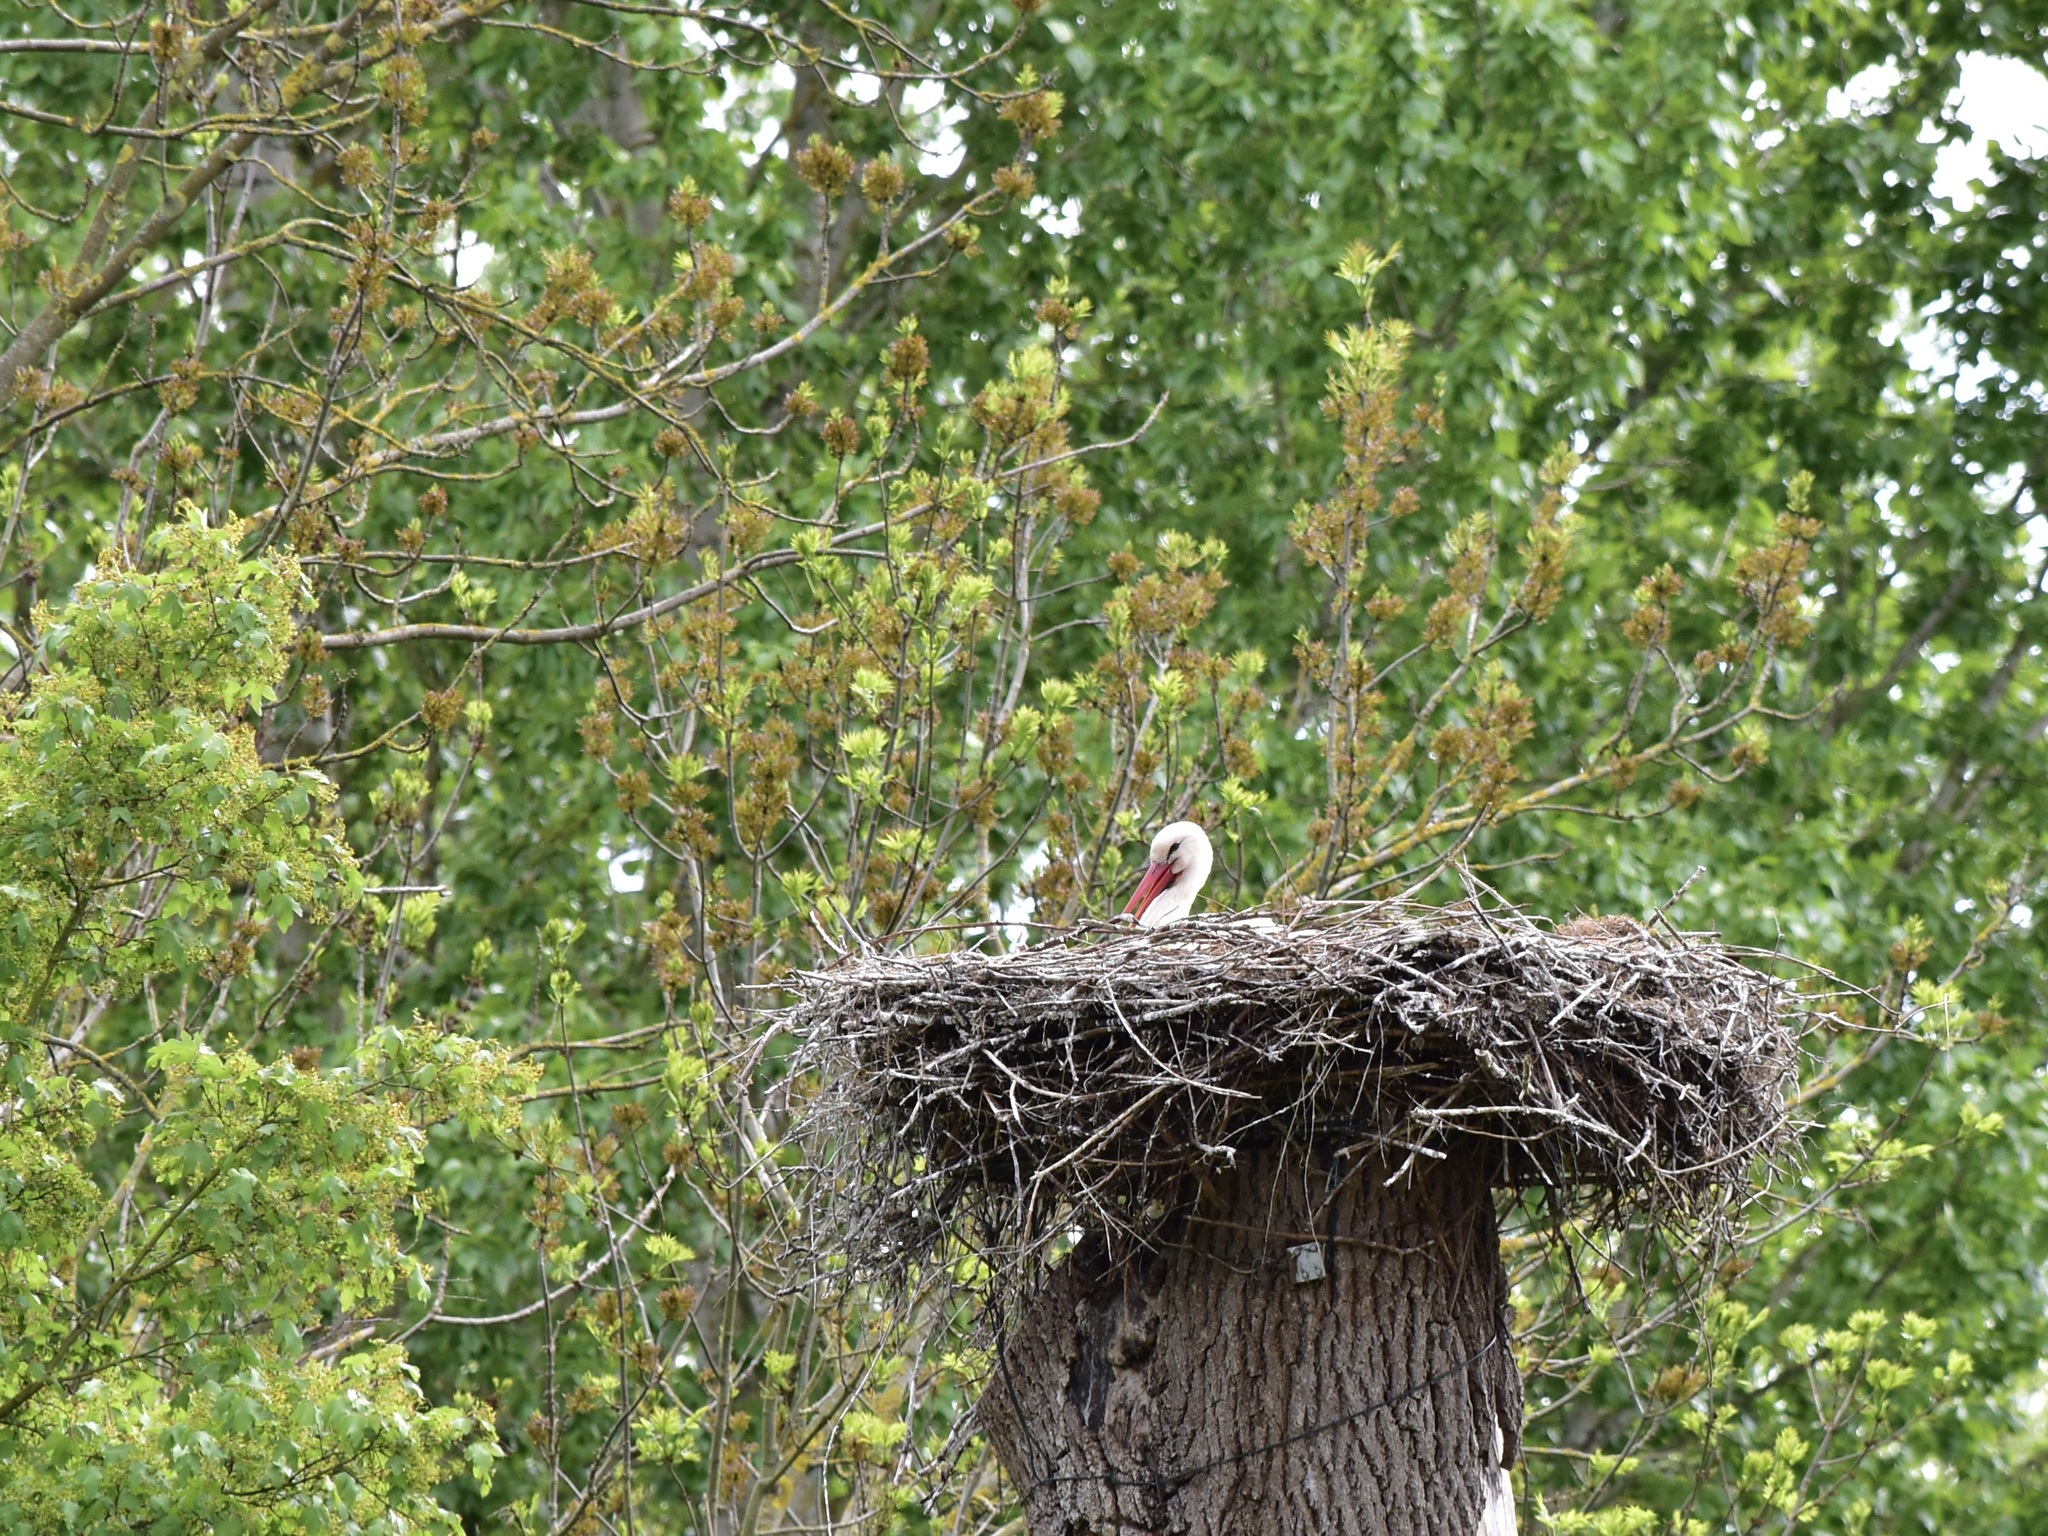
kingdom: Animalia
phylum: Chordata
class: Aves
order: Ciconiiformes
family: Ciconiidae
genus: Ciconia
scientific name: Ciconia ciconia
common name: White stork
